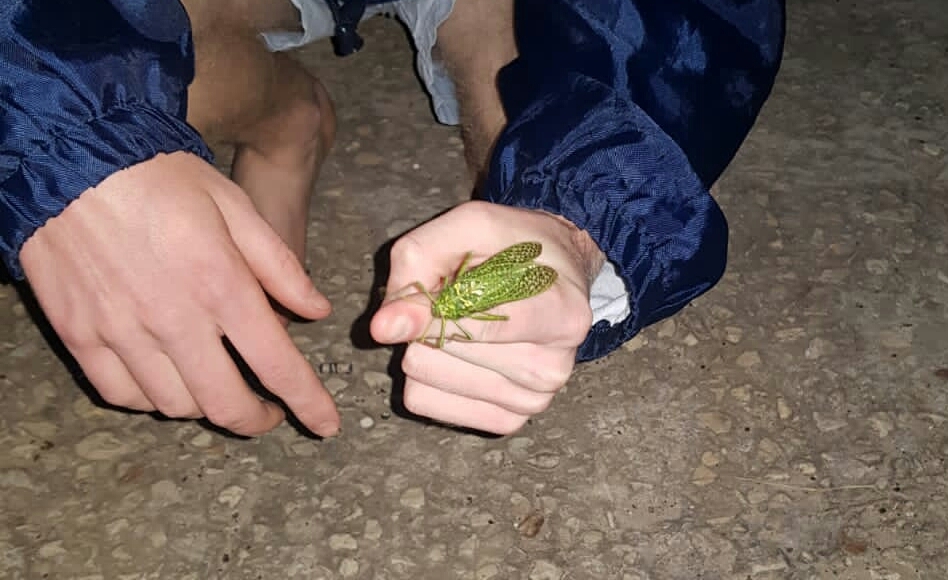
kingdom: Animalia
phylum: Arthropoda
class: Insecta
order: Orthoptera
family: Pneumoridae
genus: Physemacris
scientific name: Physemacris variolosa
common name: Silver spotted bladder grasshopper
